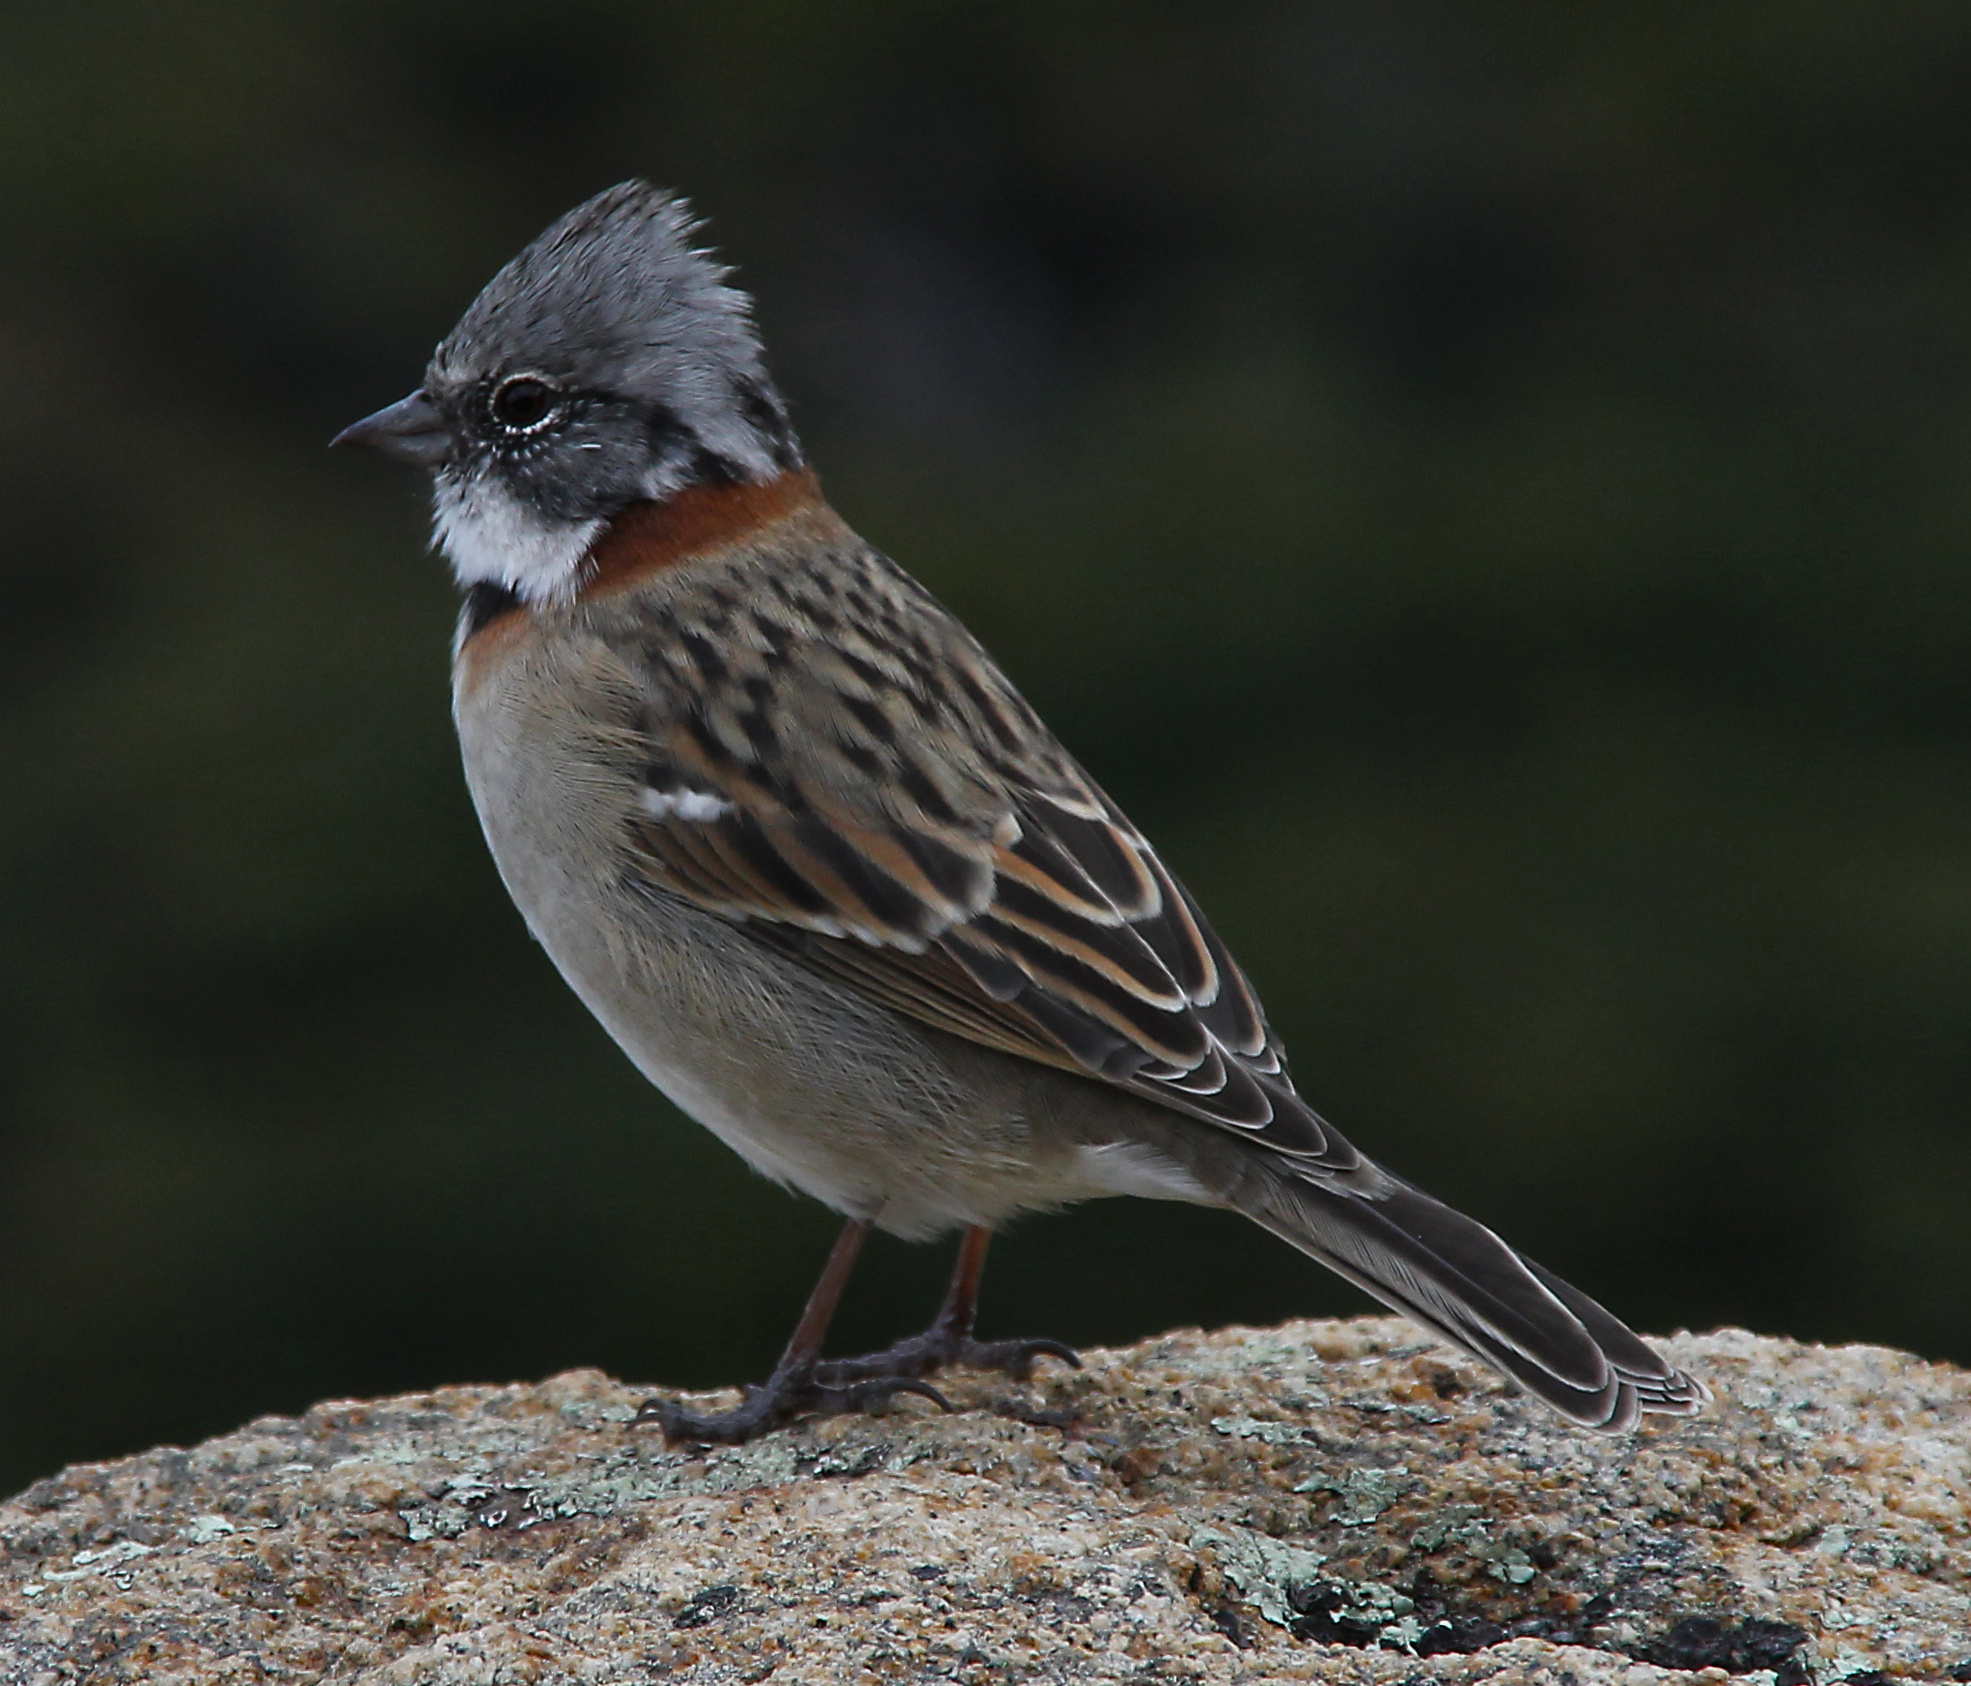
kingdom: Animalia
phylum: Chordata
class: Aves
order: Passeriformes
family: Passerellidae
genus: Zonotrichia
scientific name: Zonotrichia capensis
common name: Rufous-collared sparrow
